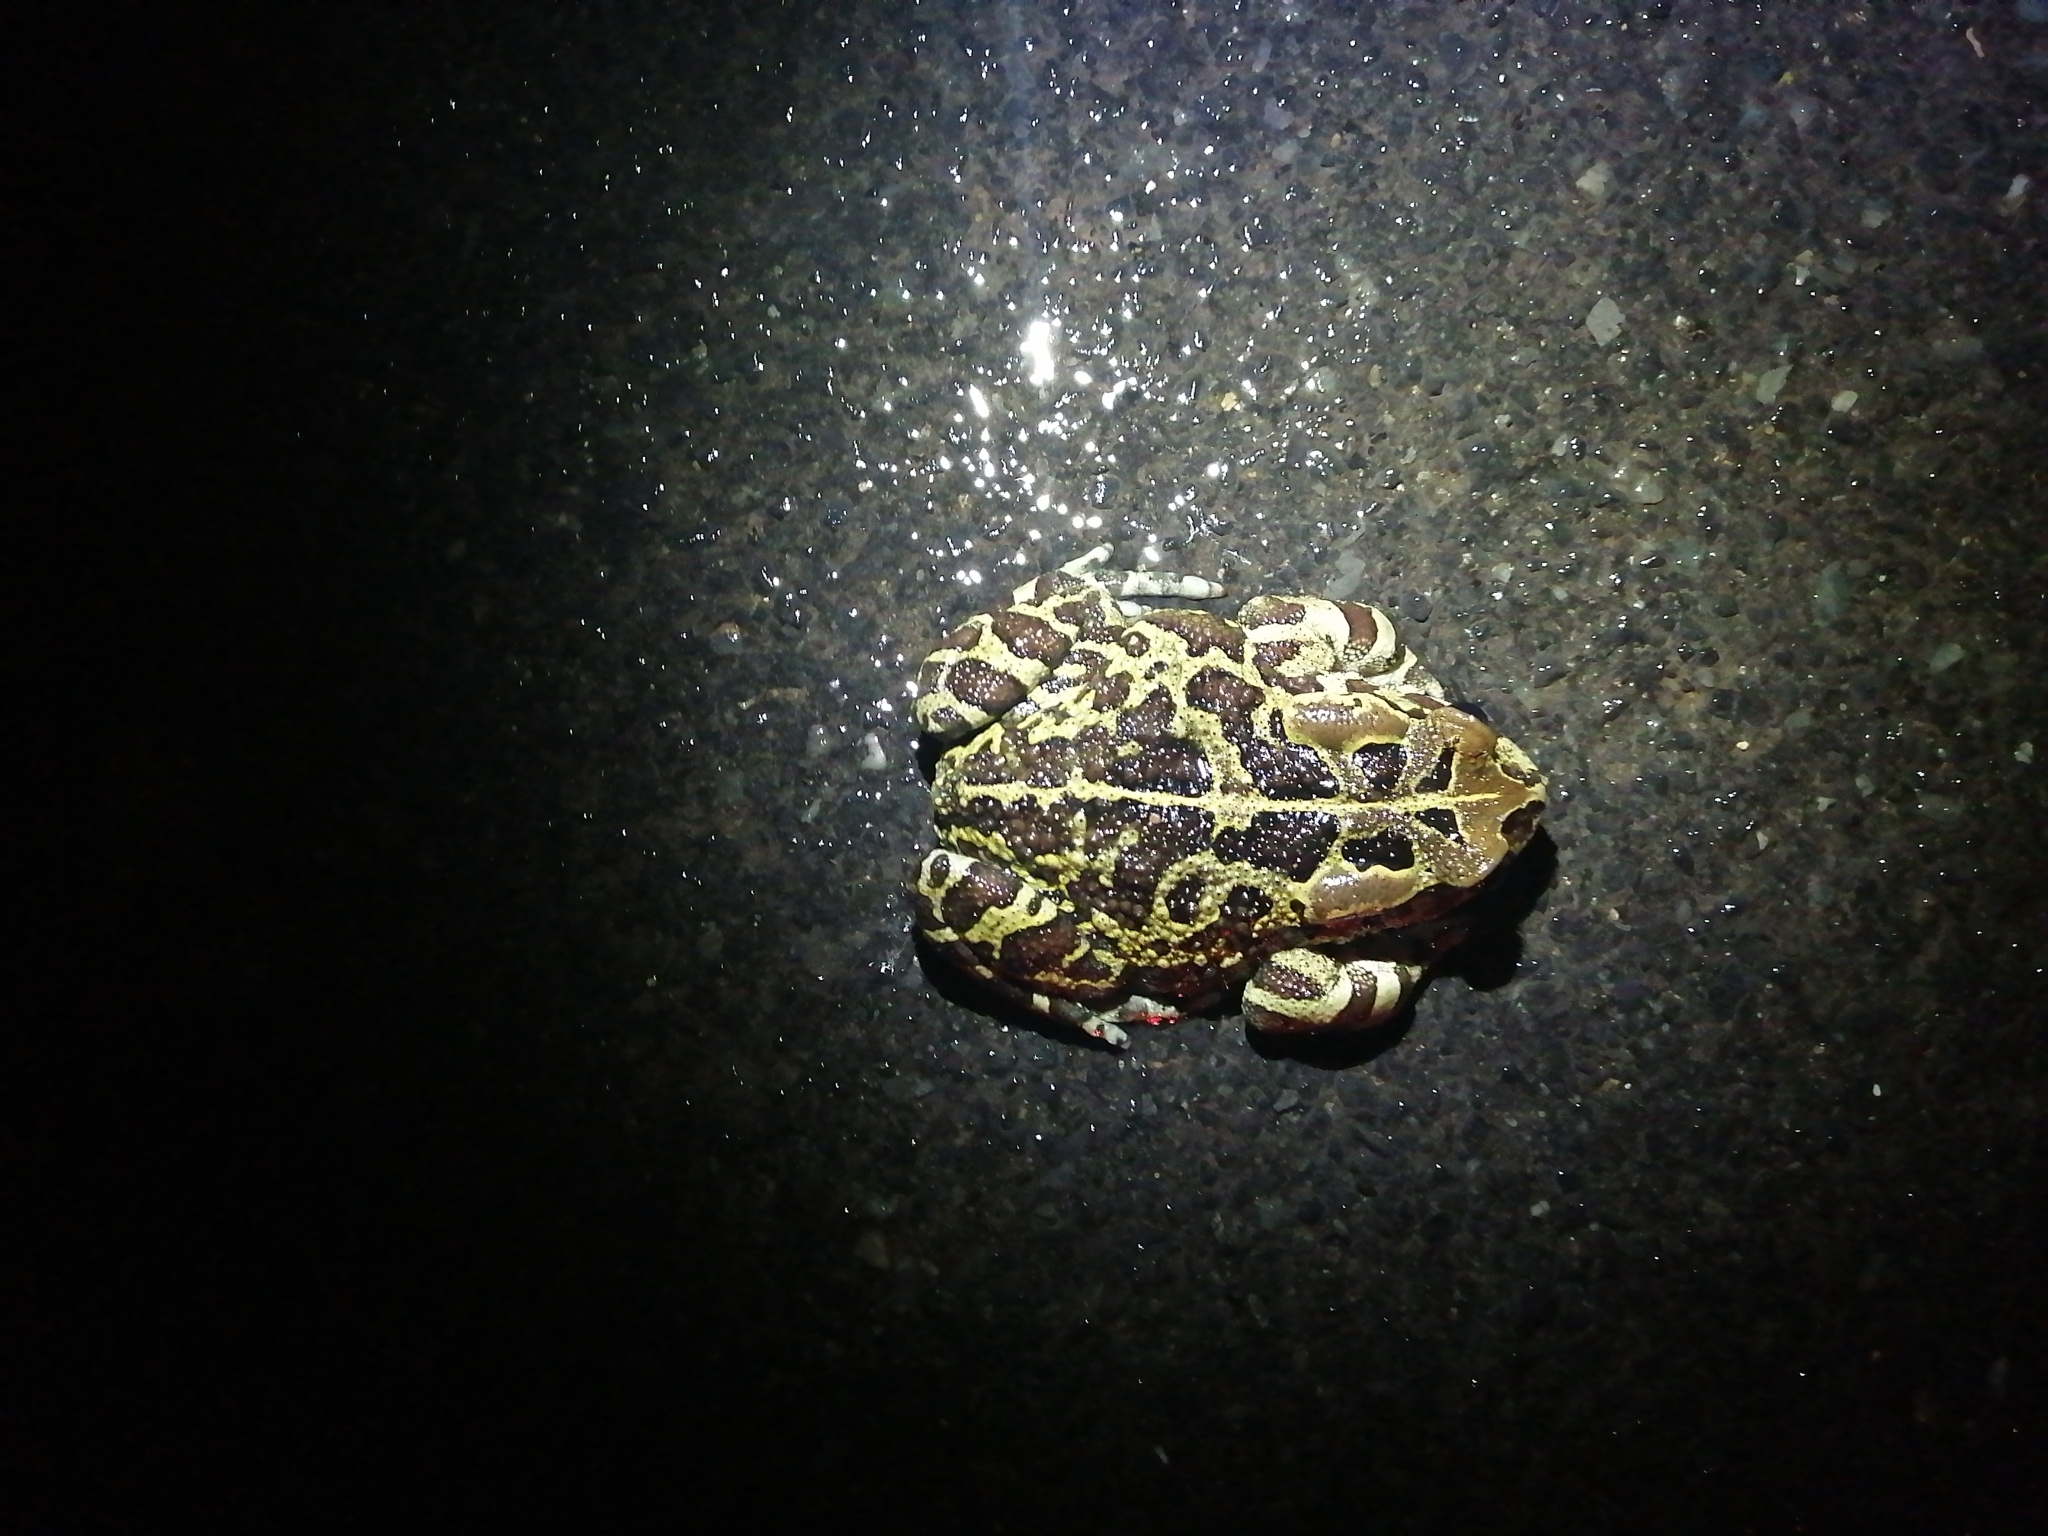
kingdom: Animalia
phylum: Chordata
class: Amphibia
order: Anura
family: Bufonidae
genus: Sclerophrys
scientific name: Sclerophrys pantherina
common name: Panther toad
